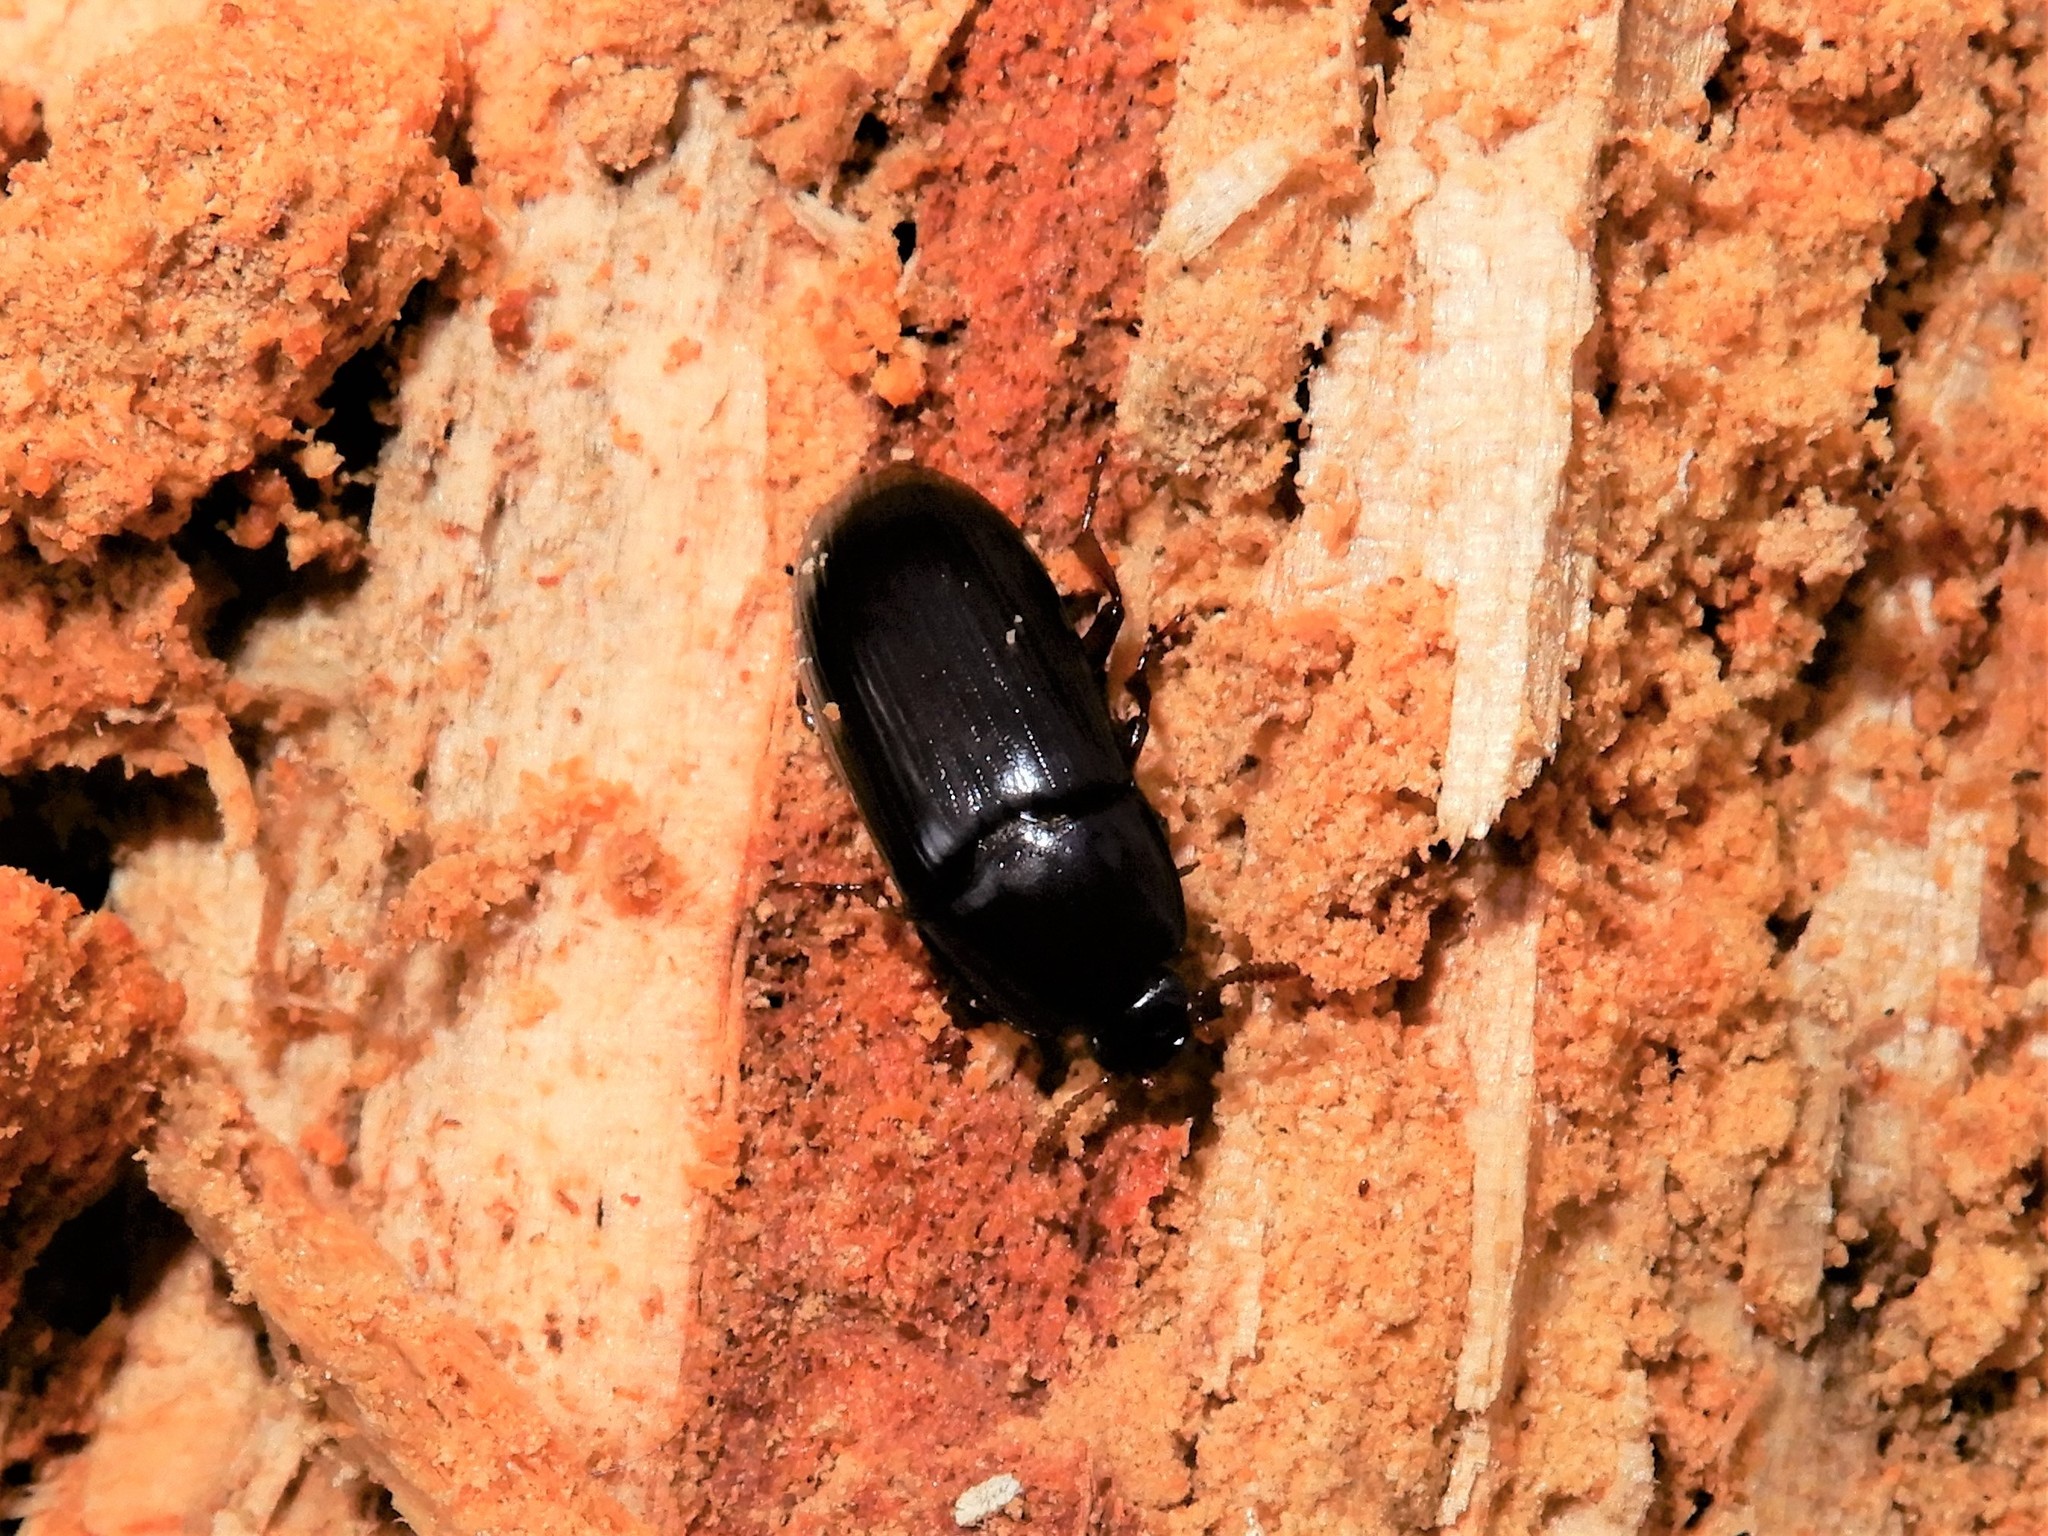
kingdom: Animalia
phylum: Arthropoda
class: Insecta
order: Coleoptera
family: Tenebrionidae
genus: Uloma
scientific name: Uloma tenebrionoides
